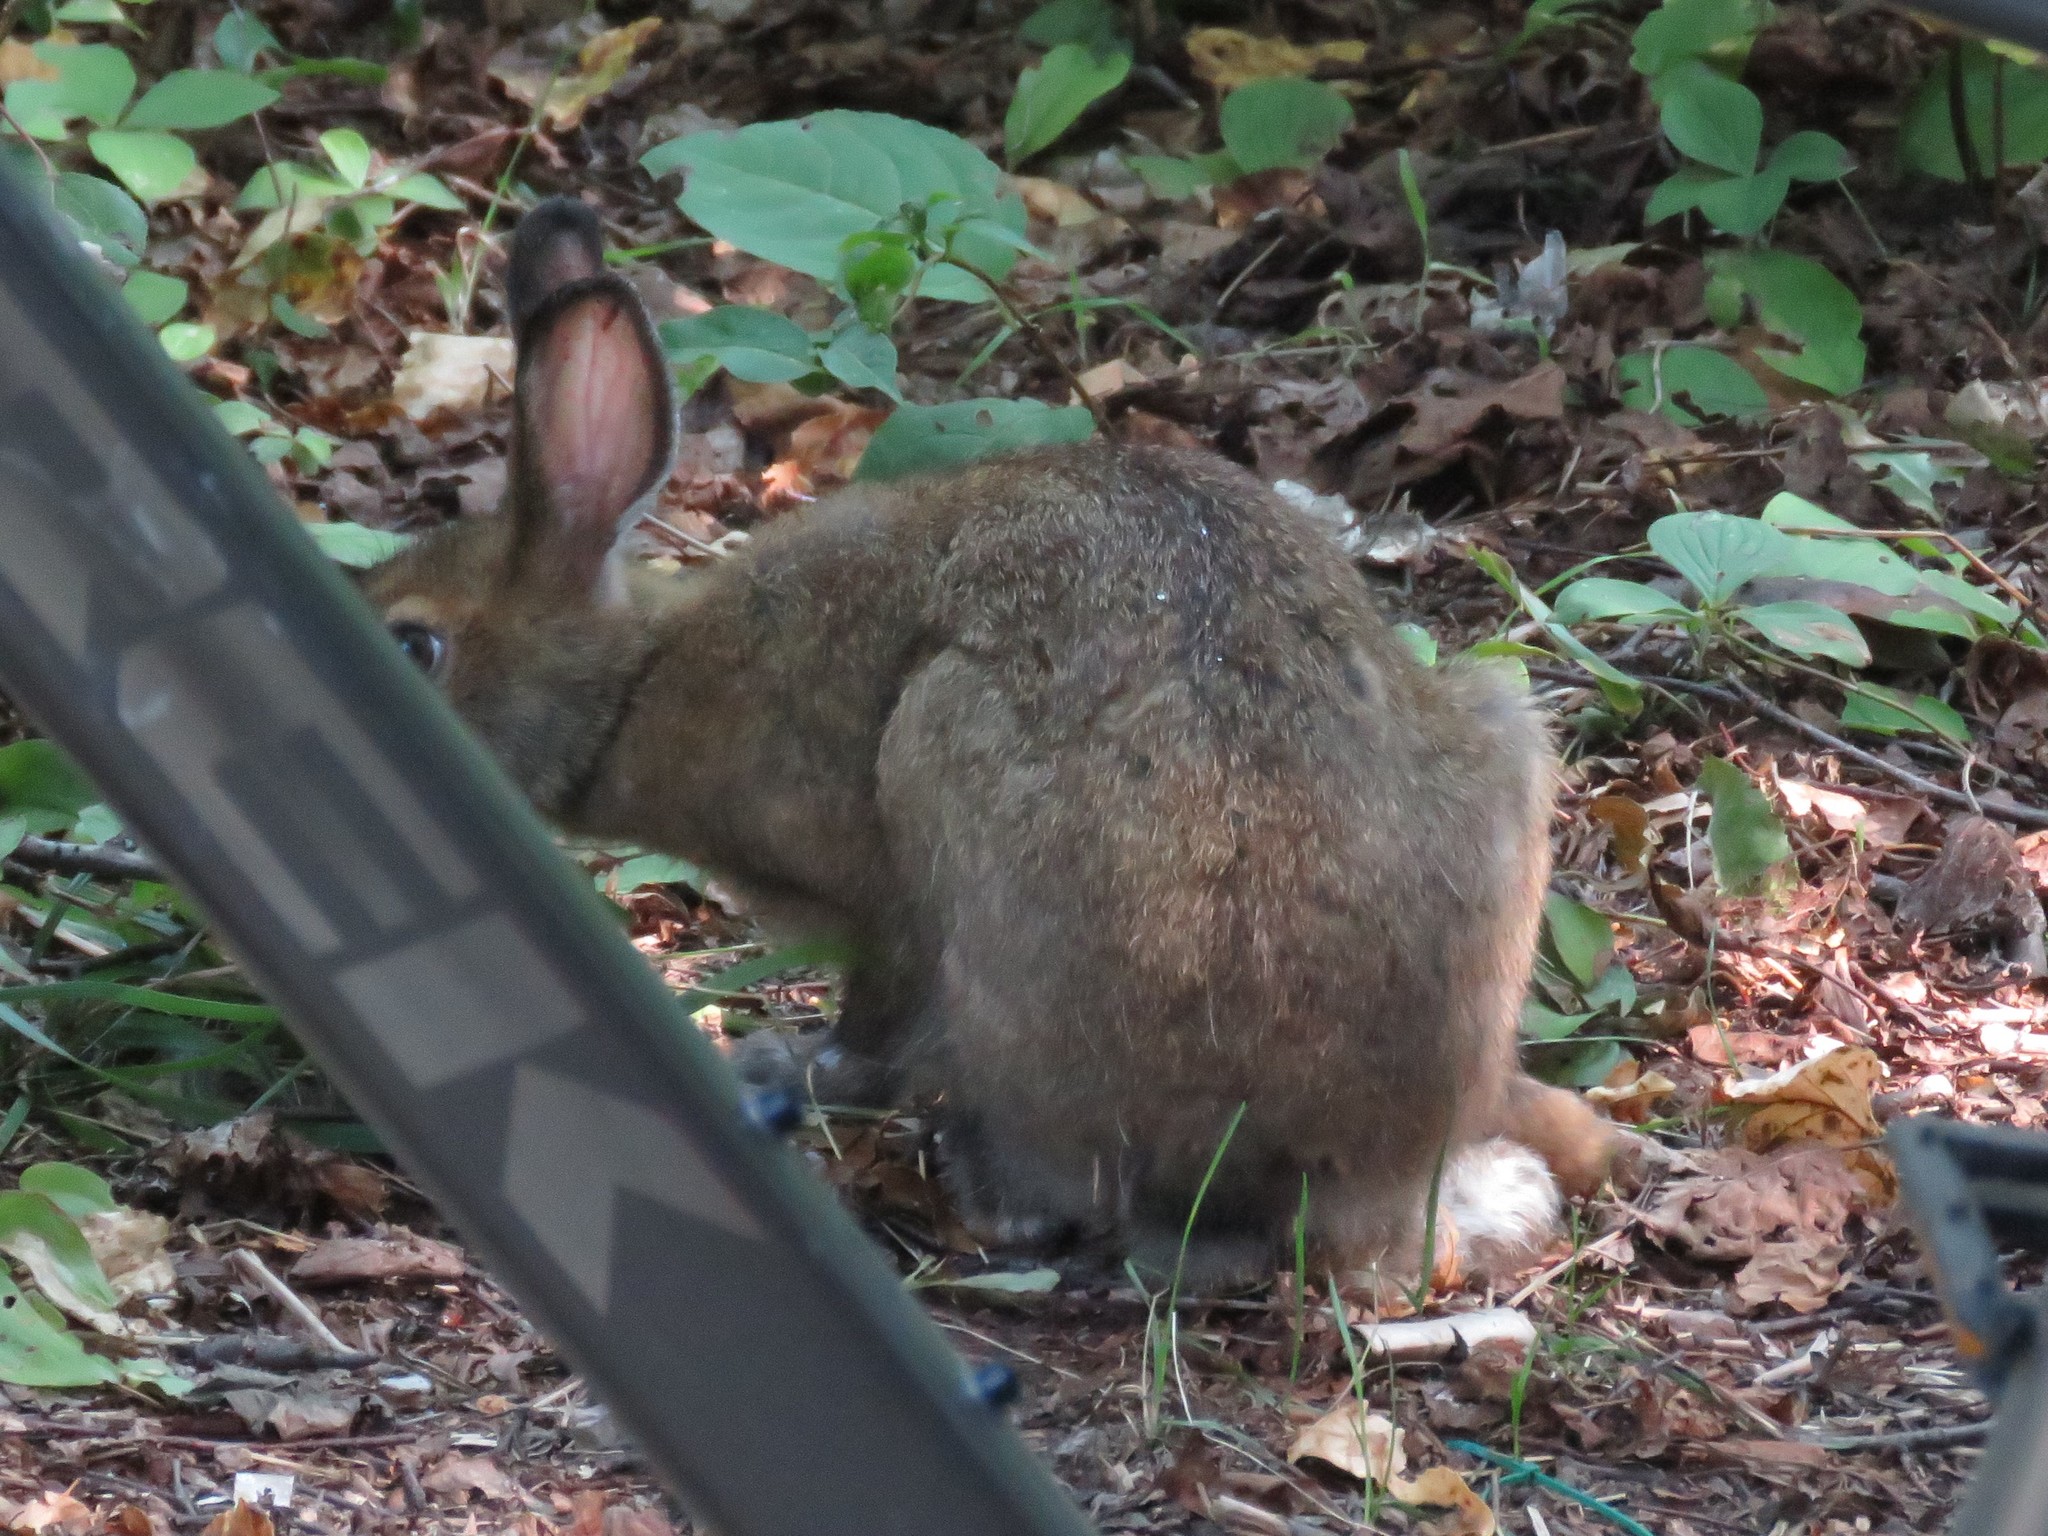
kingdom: Animalia
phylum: Chordata
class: Mammalia
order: Lagomorpha
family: Leporidae
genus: Lepus
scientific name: Lepus americanus
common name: Snowshoe hare
